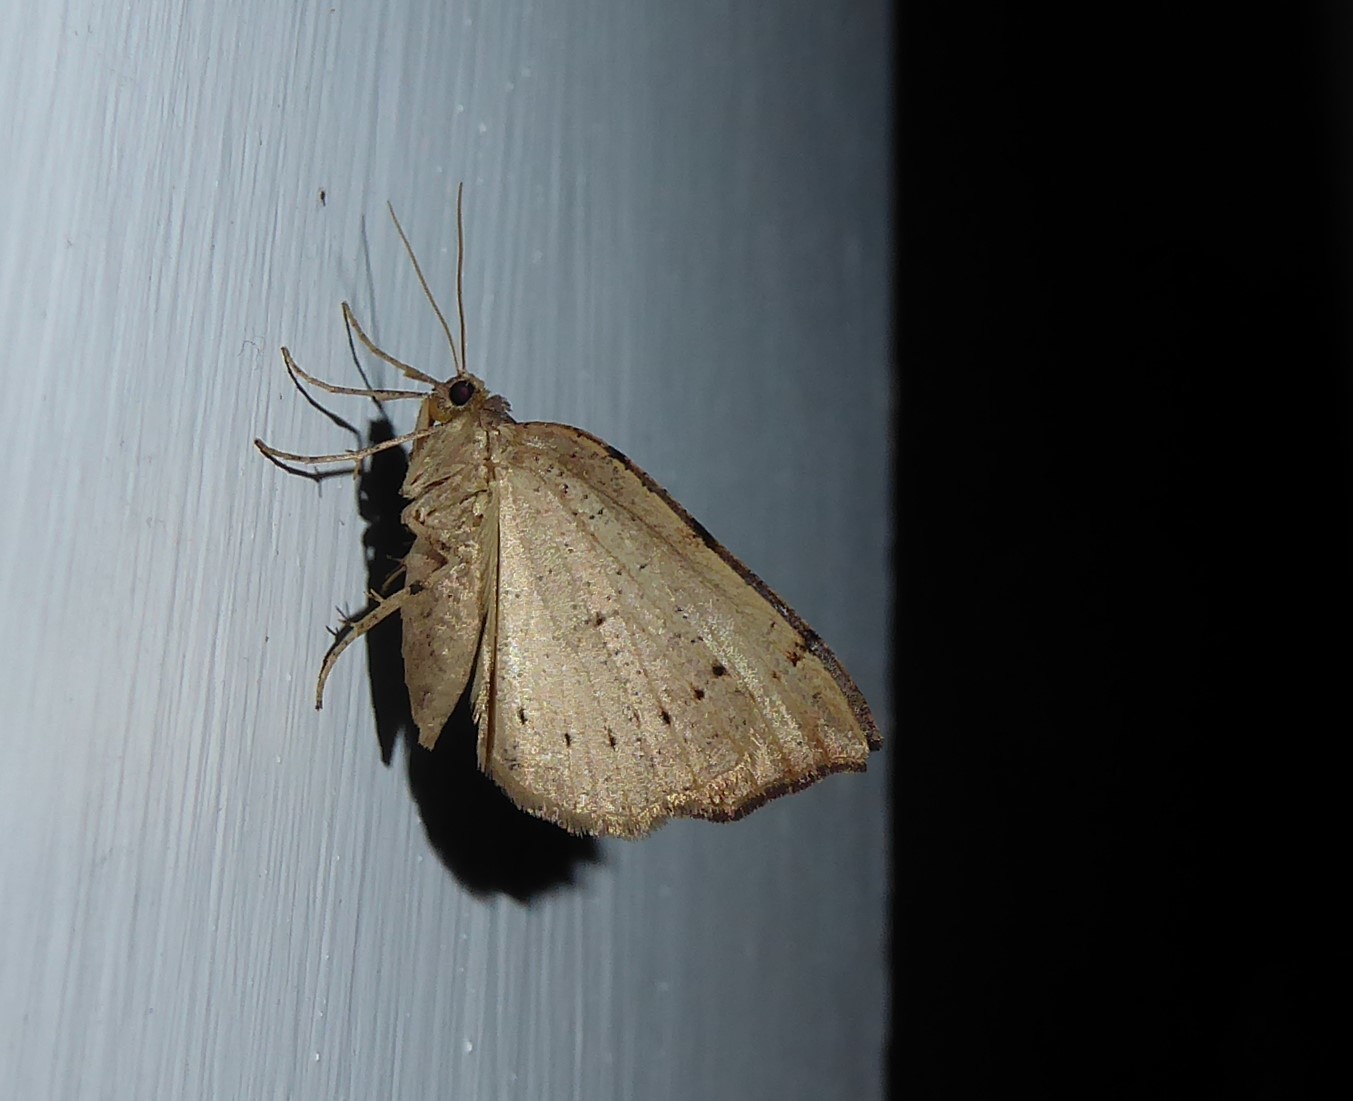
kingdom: Animalia
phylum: Arthropoda
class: Insecta
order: Lepidoptera
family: Geometridae
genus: Sestra
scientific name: Sestra humeraria
